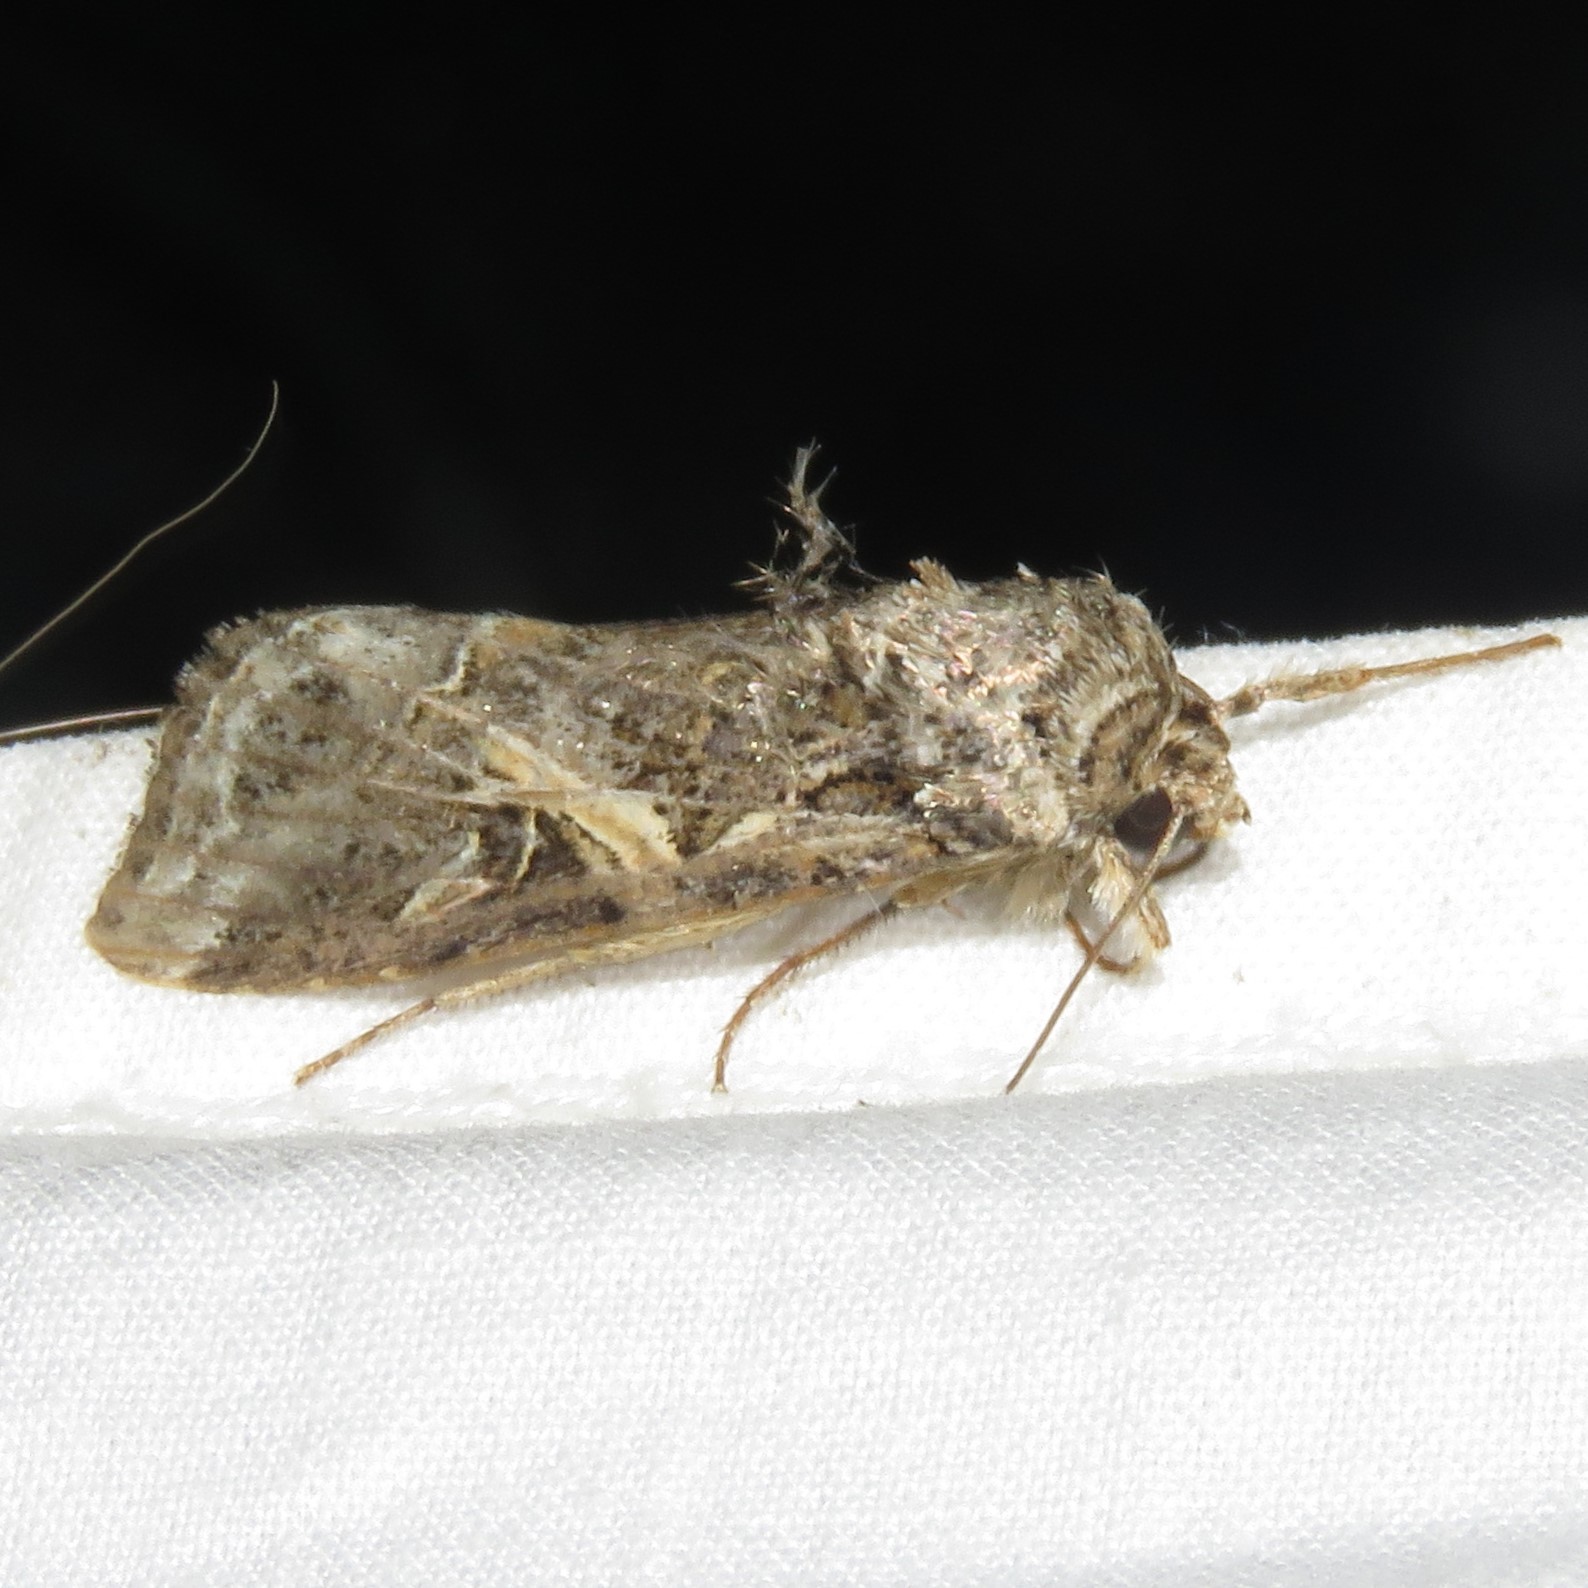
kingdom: Animalia
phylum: Arthropoda
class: Insecta
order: Lepidoptera
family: Noctuidae
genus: Spodoptera
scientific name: Spodoptera ornithogalli
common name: Yellow-striped armyworm
